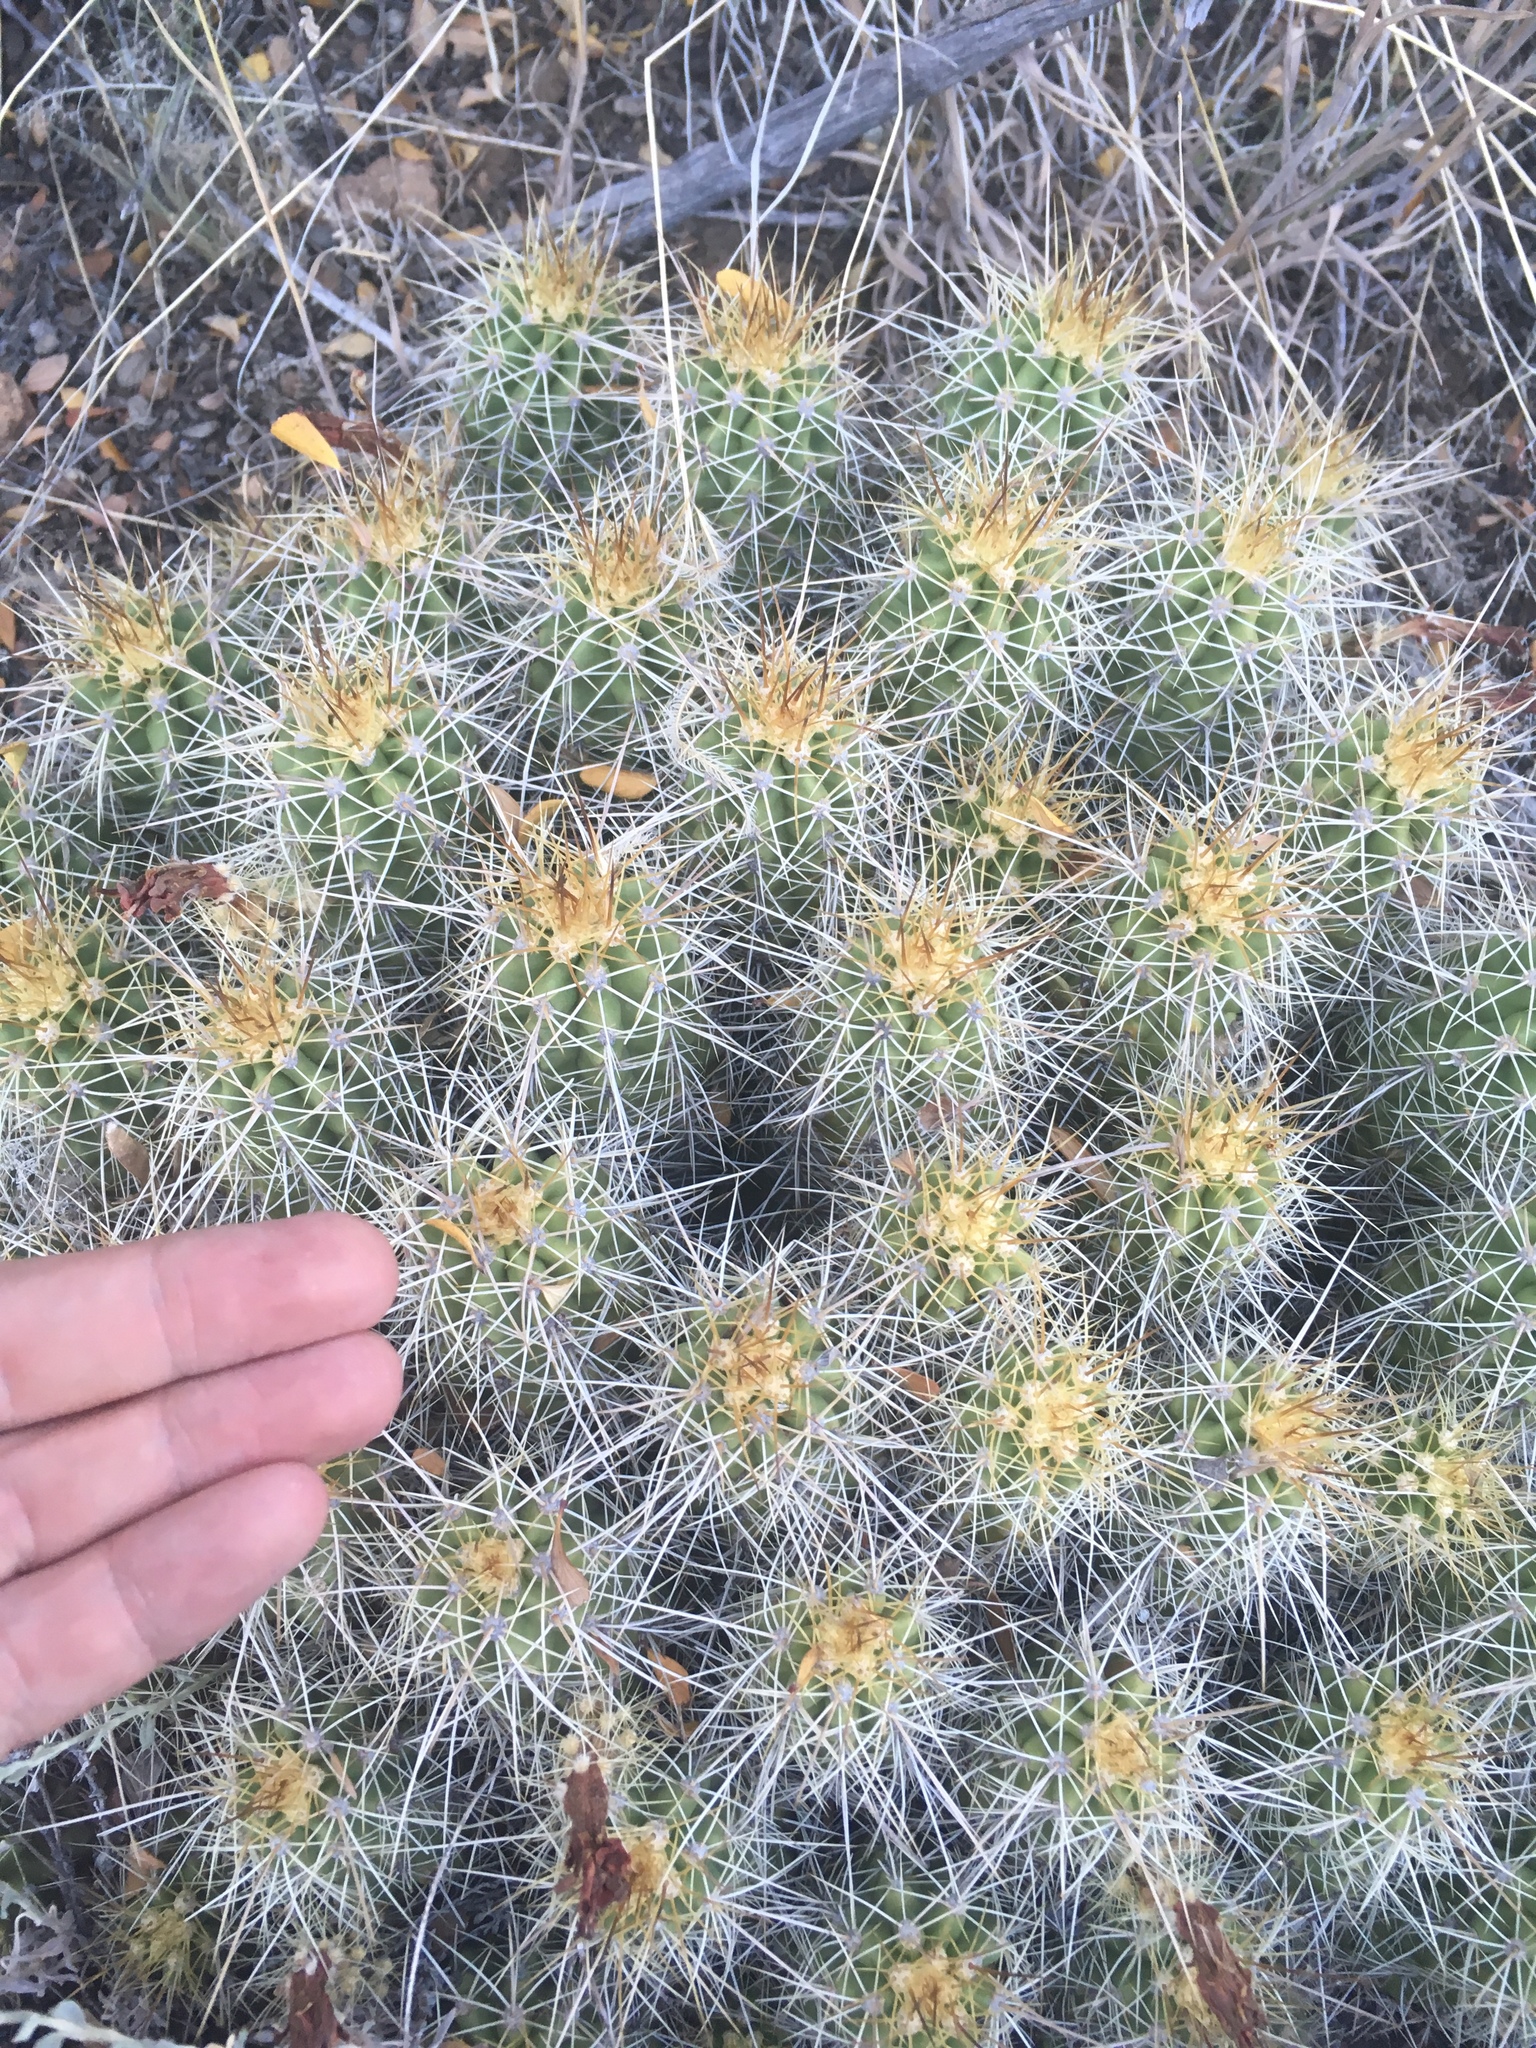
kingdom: Plantae
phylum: Tracheophyta
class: Magnoliopsida
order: Caryophyllales
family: Cactaceae
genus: Echinocereus
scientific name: Echinocereus bakeri
